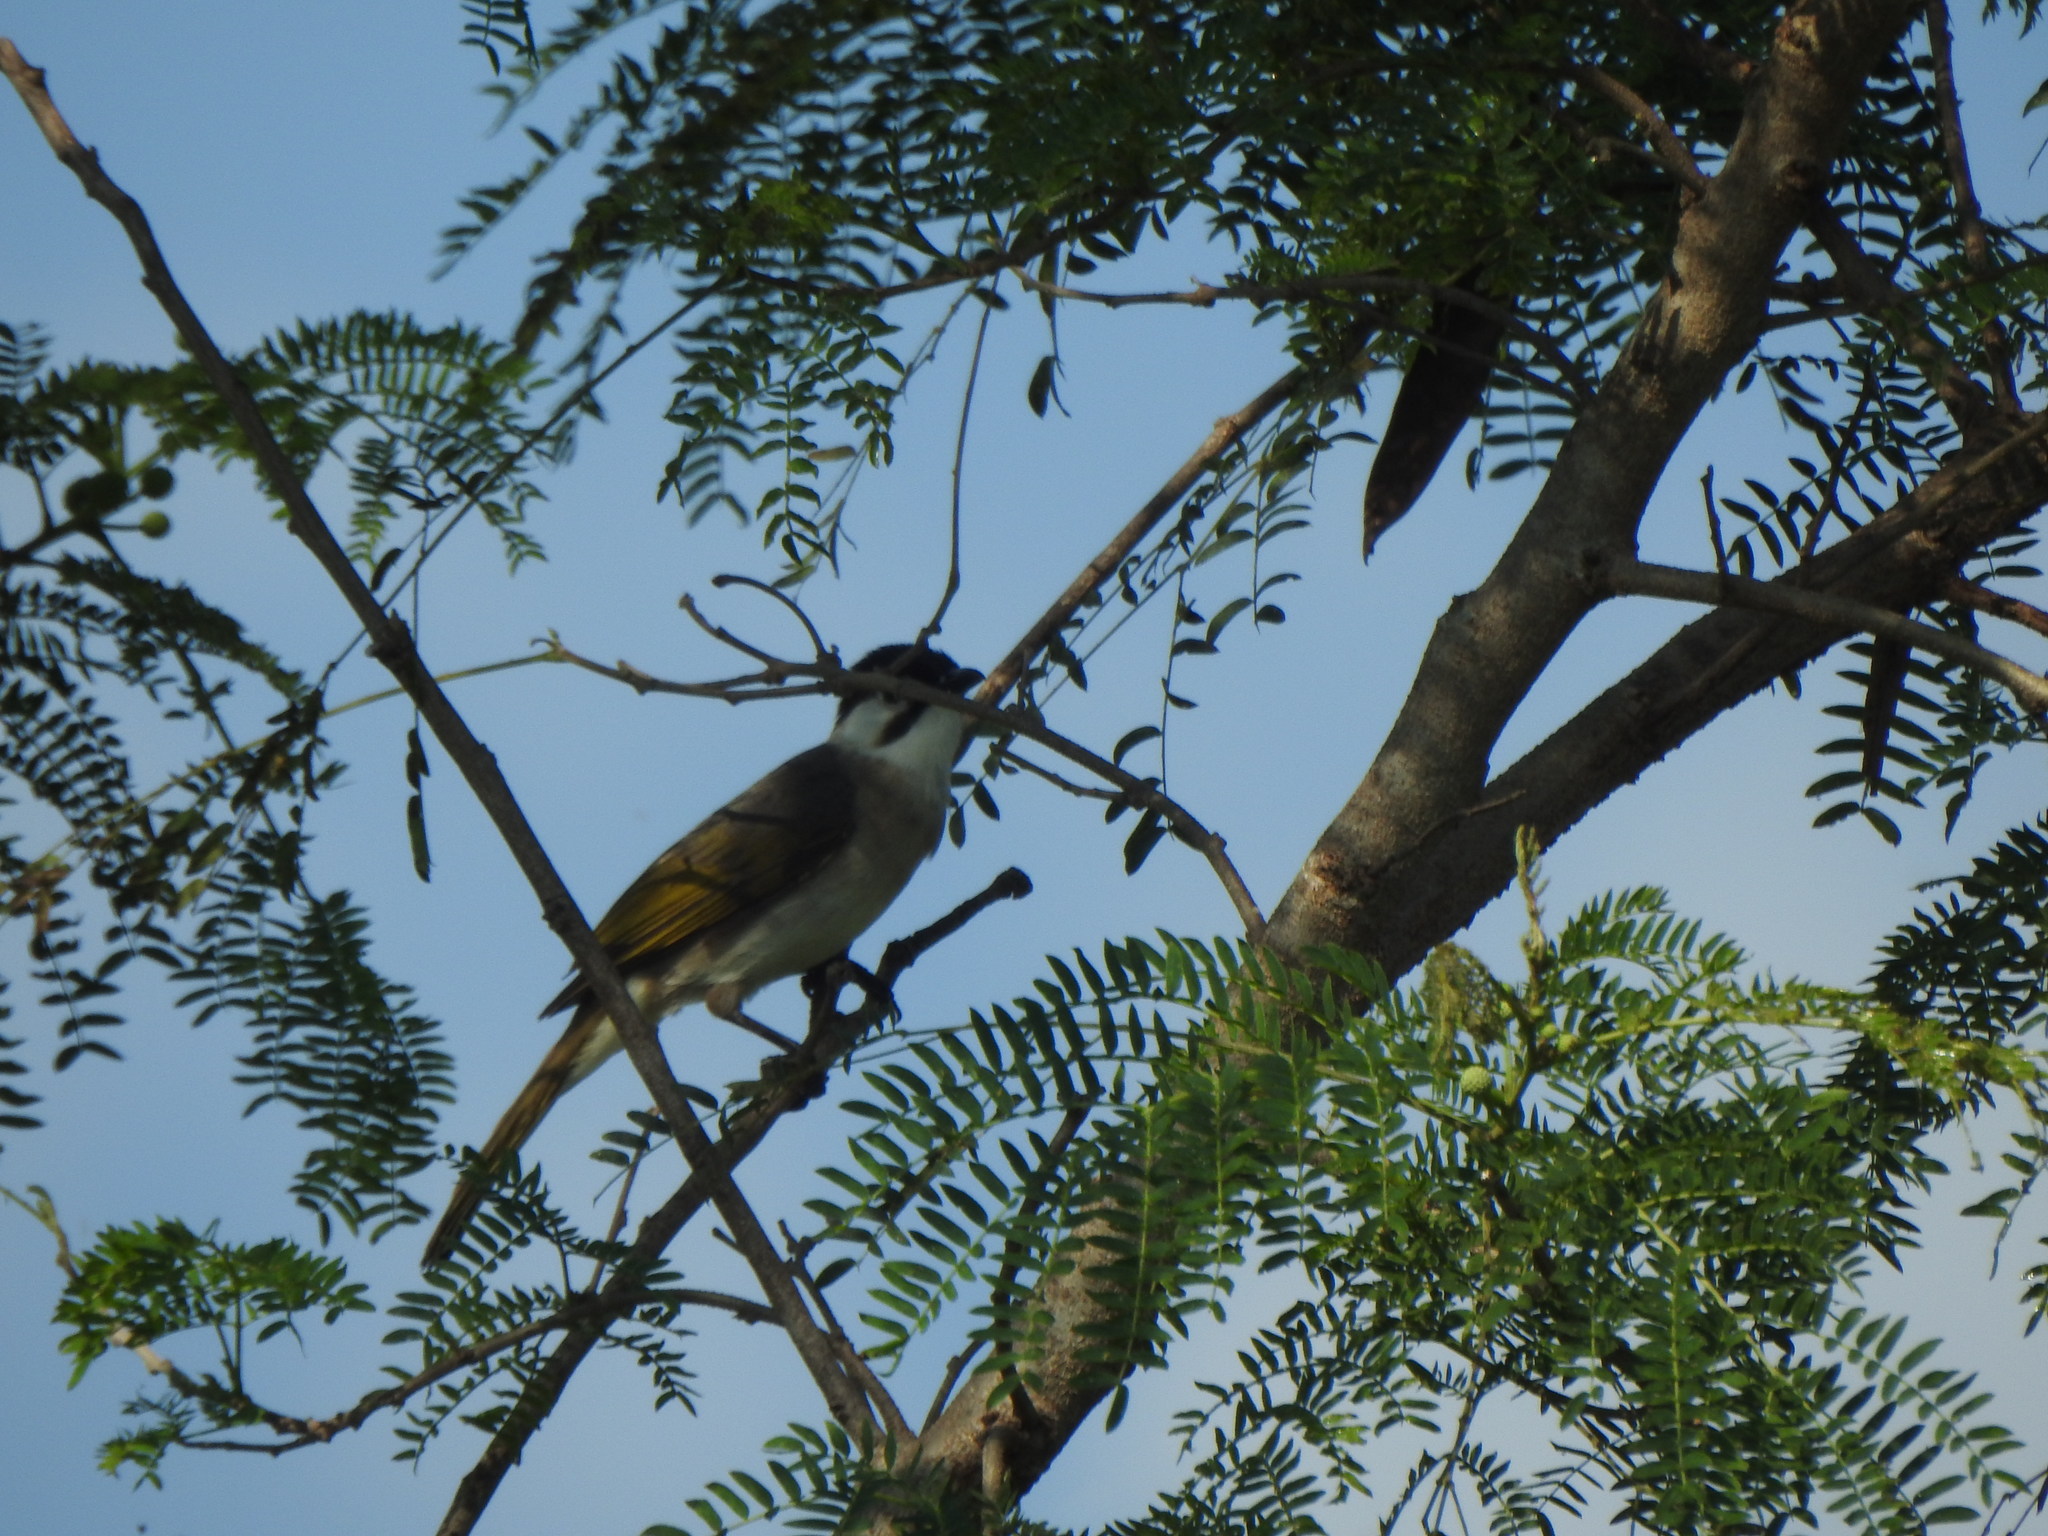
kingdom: Animalia
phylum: Chordata
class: Aves
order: Passeriformes
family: Pycnonotidae
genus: Pycnonotus
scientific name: Pycnonotus taivanus
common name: Styan's bulbul
